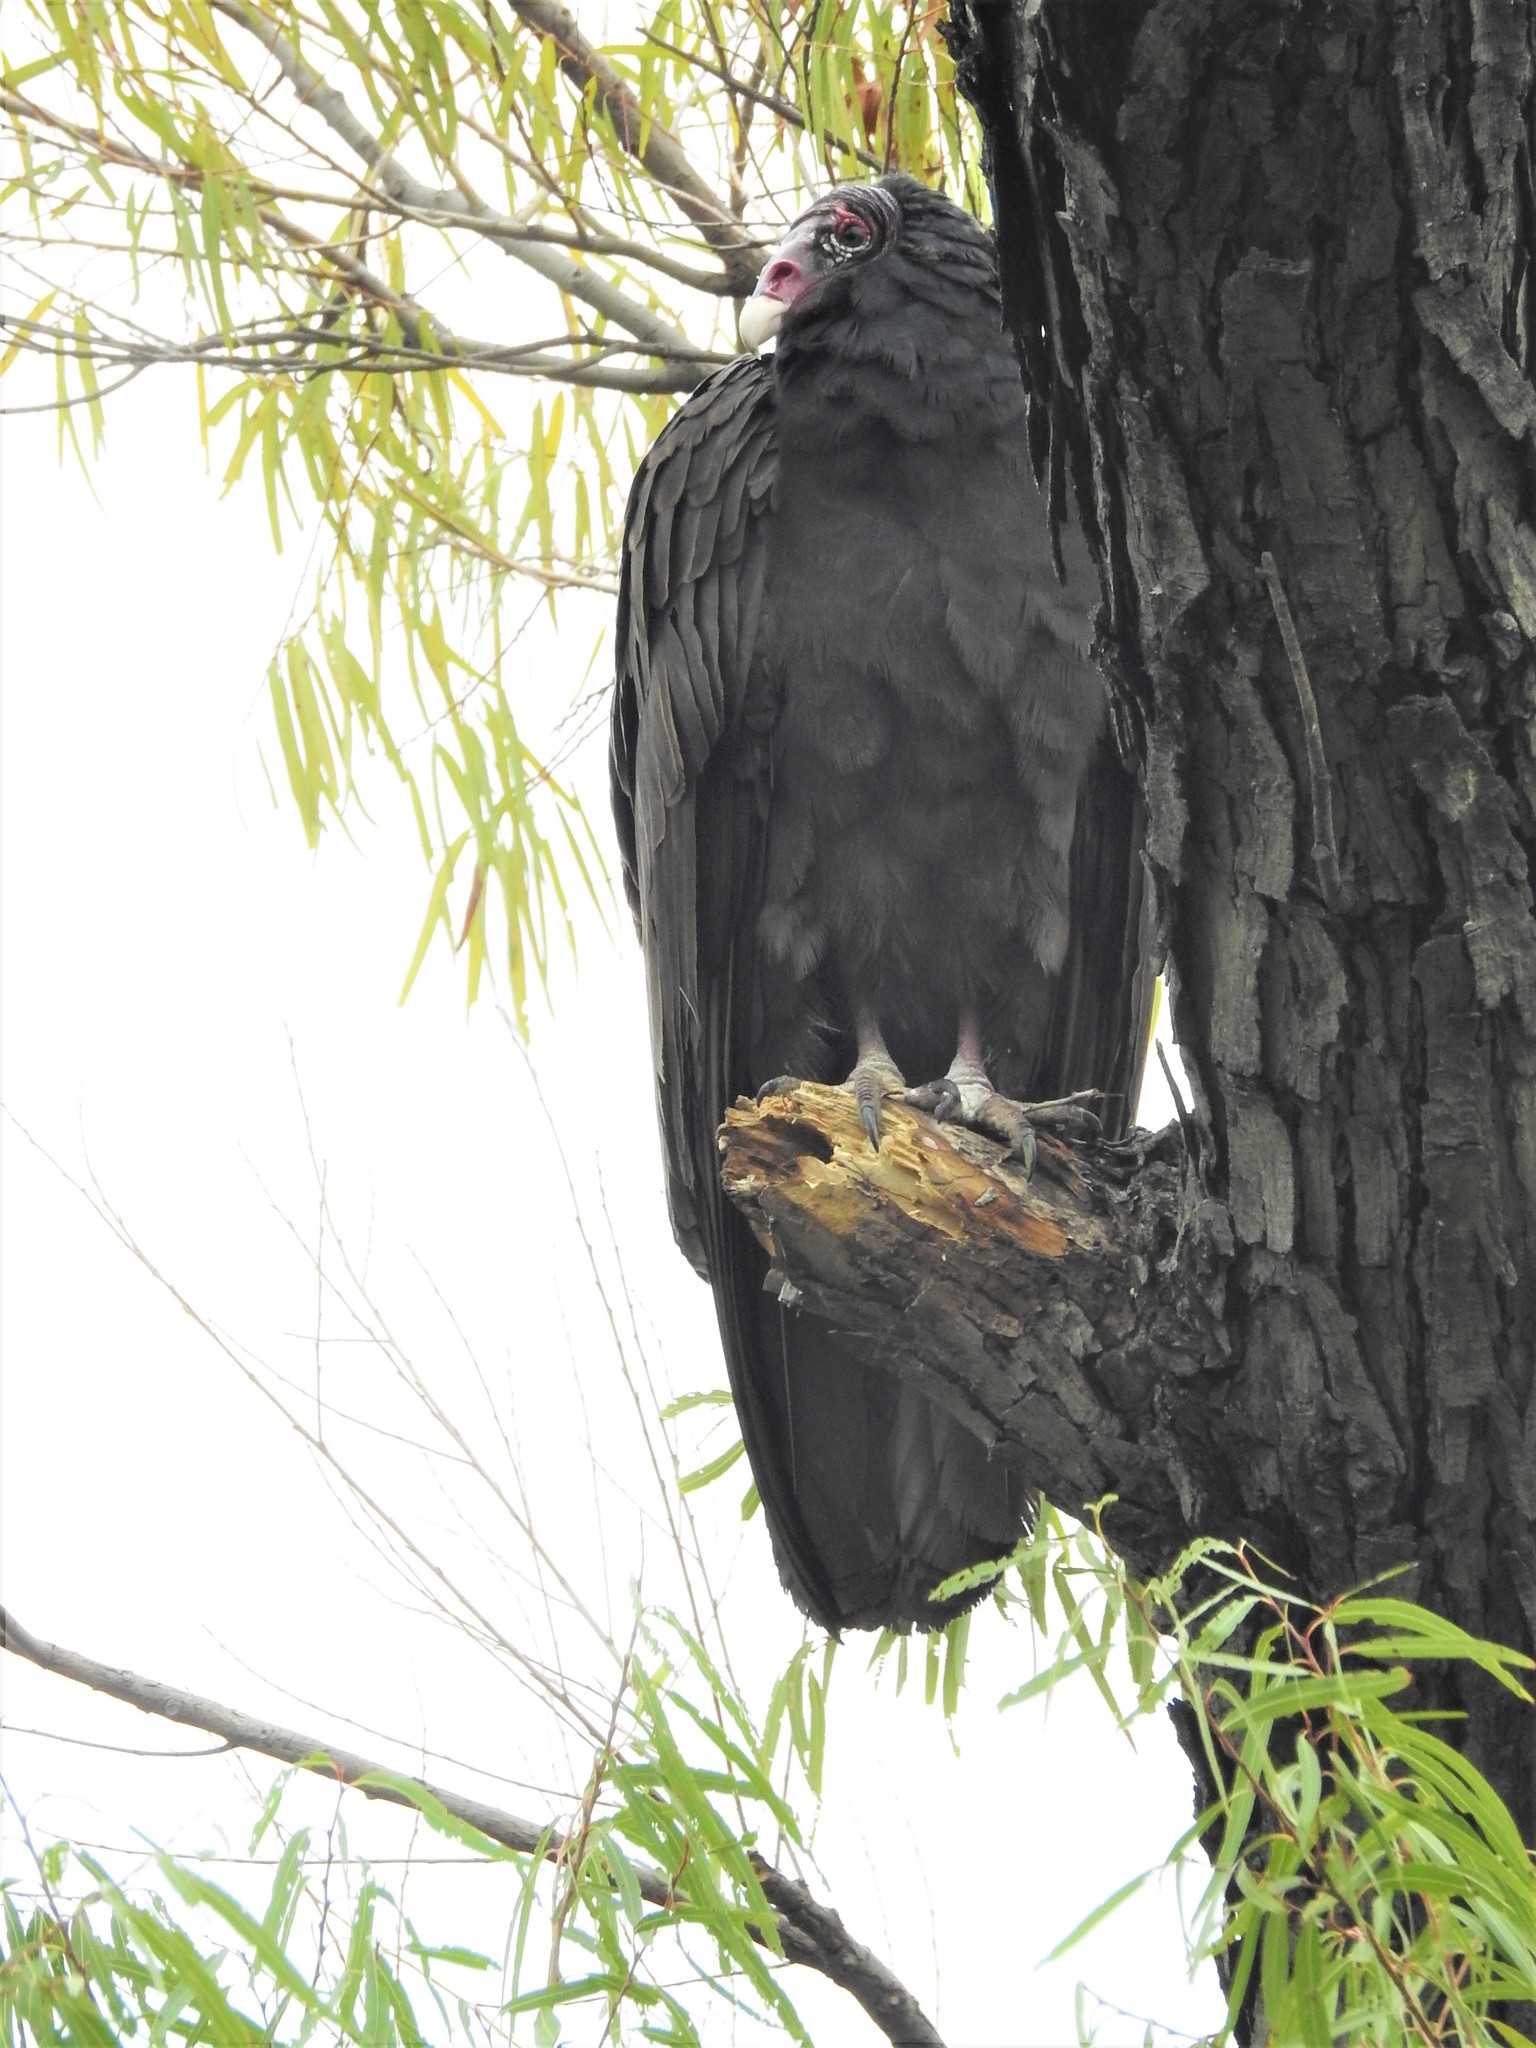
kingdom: Animalia
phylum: Chordata
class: Aves
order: Accipitriformes
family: Cathartidae
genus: Cathartes
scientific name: Cathartes aura
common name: Turkey vulture
